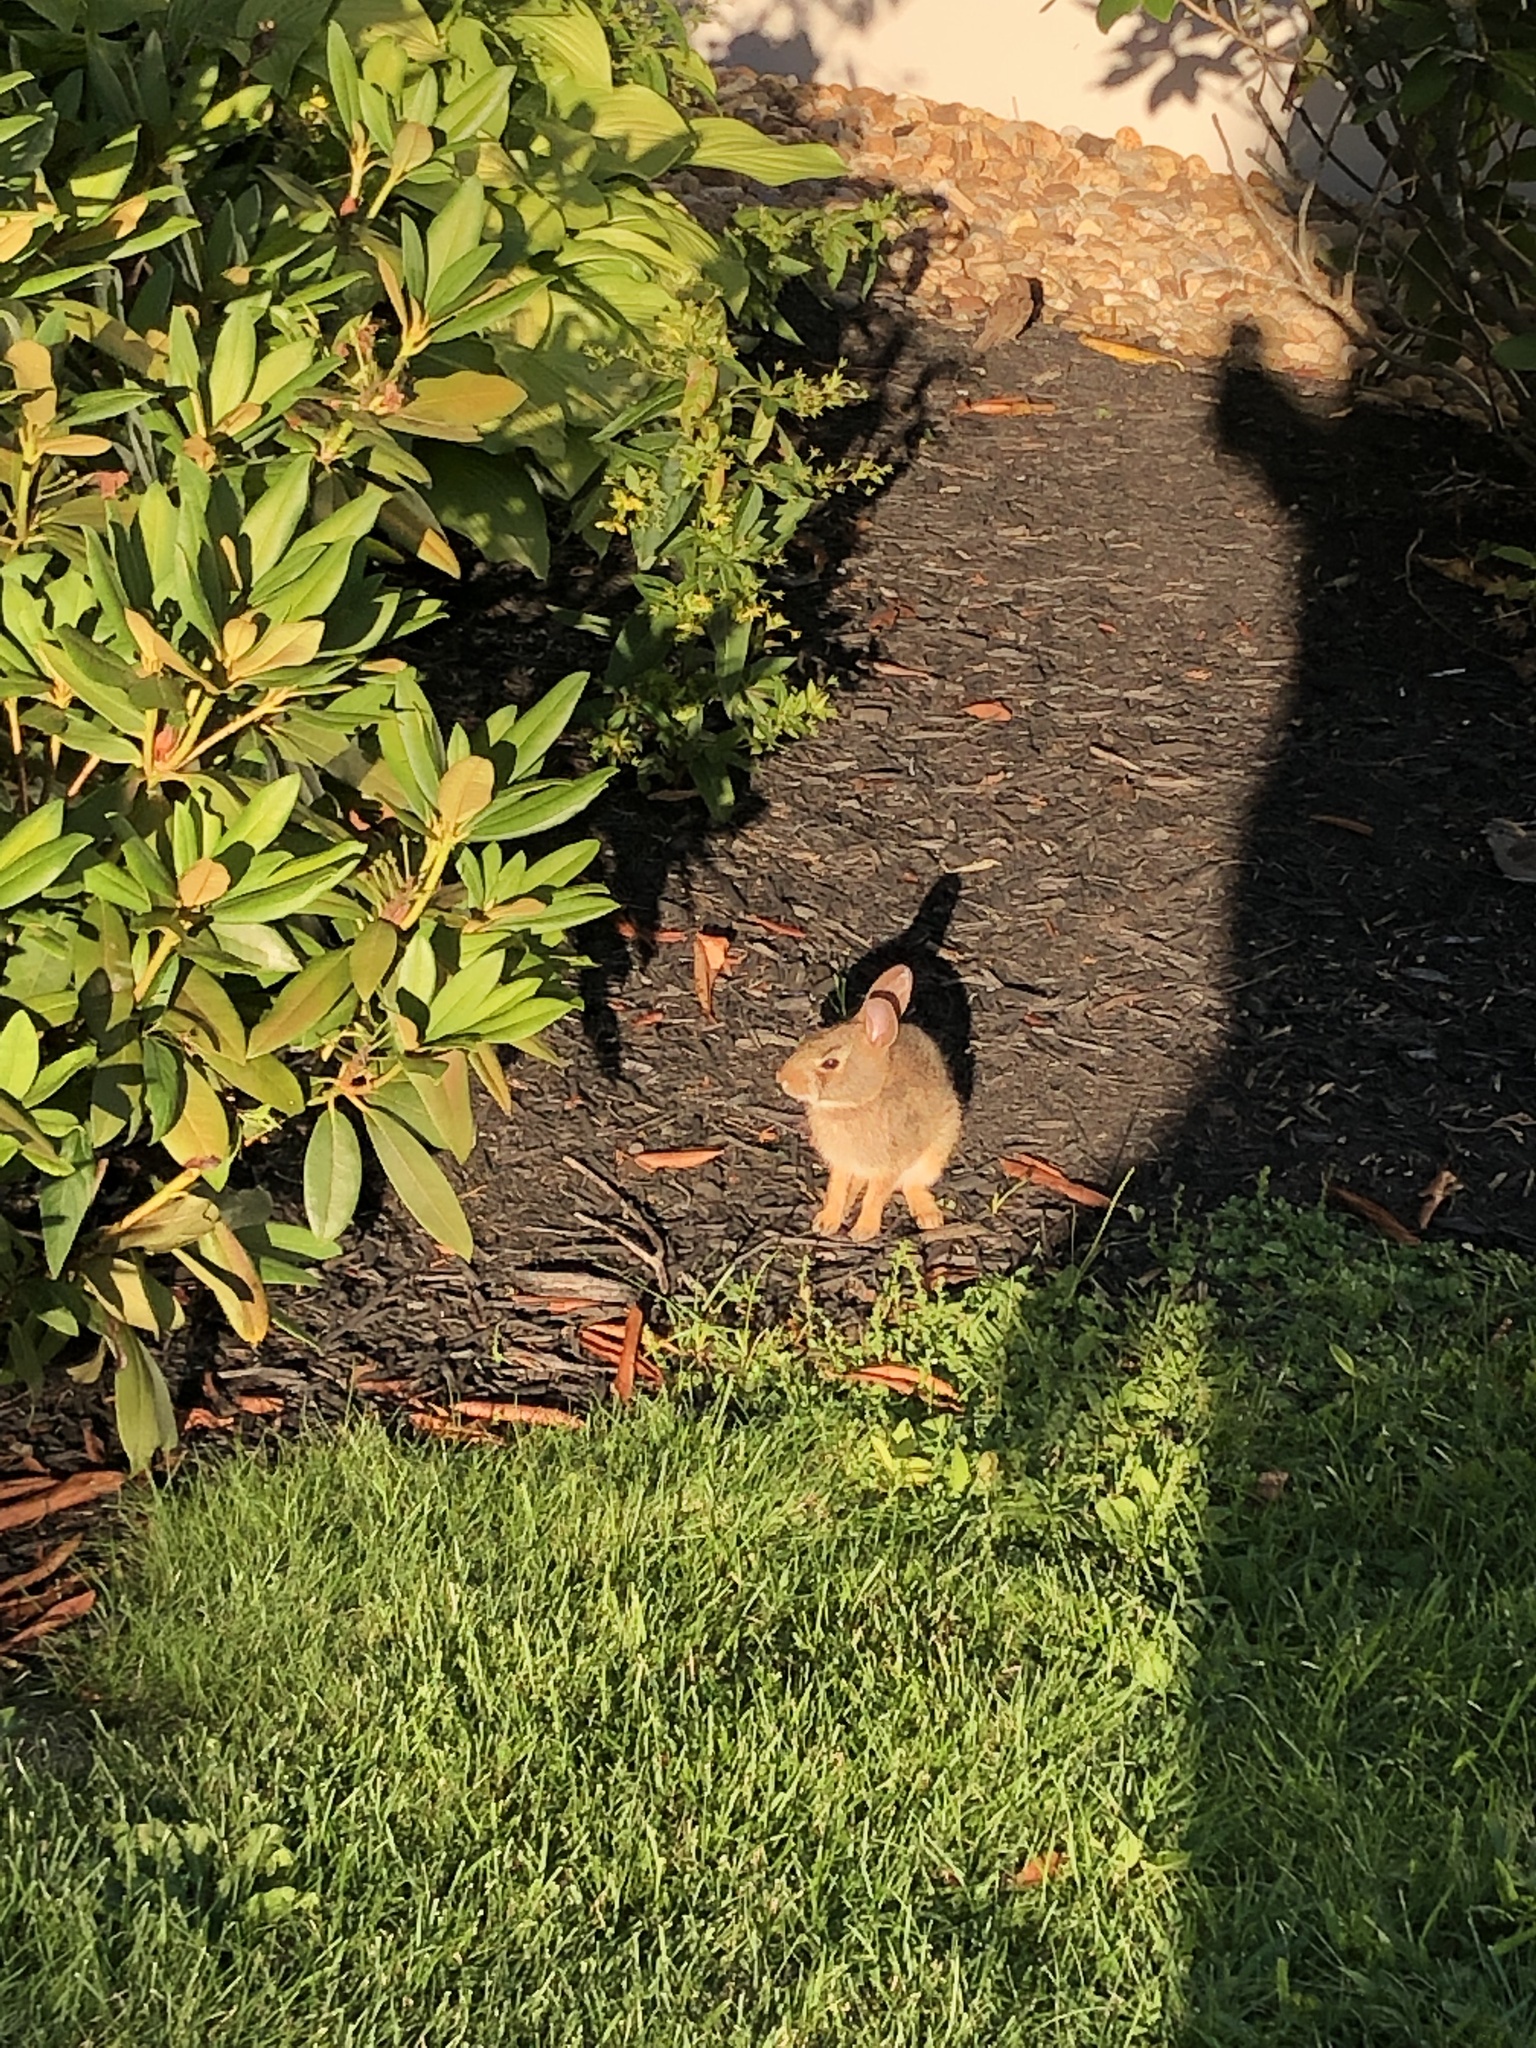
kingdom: Animalia
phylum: Chordata
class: Mammalia
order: Lagomorpha
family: Leporidae
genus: Sylvilagus
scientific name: Sylvilagus floridanus
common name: Eastern cottontail
